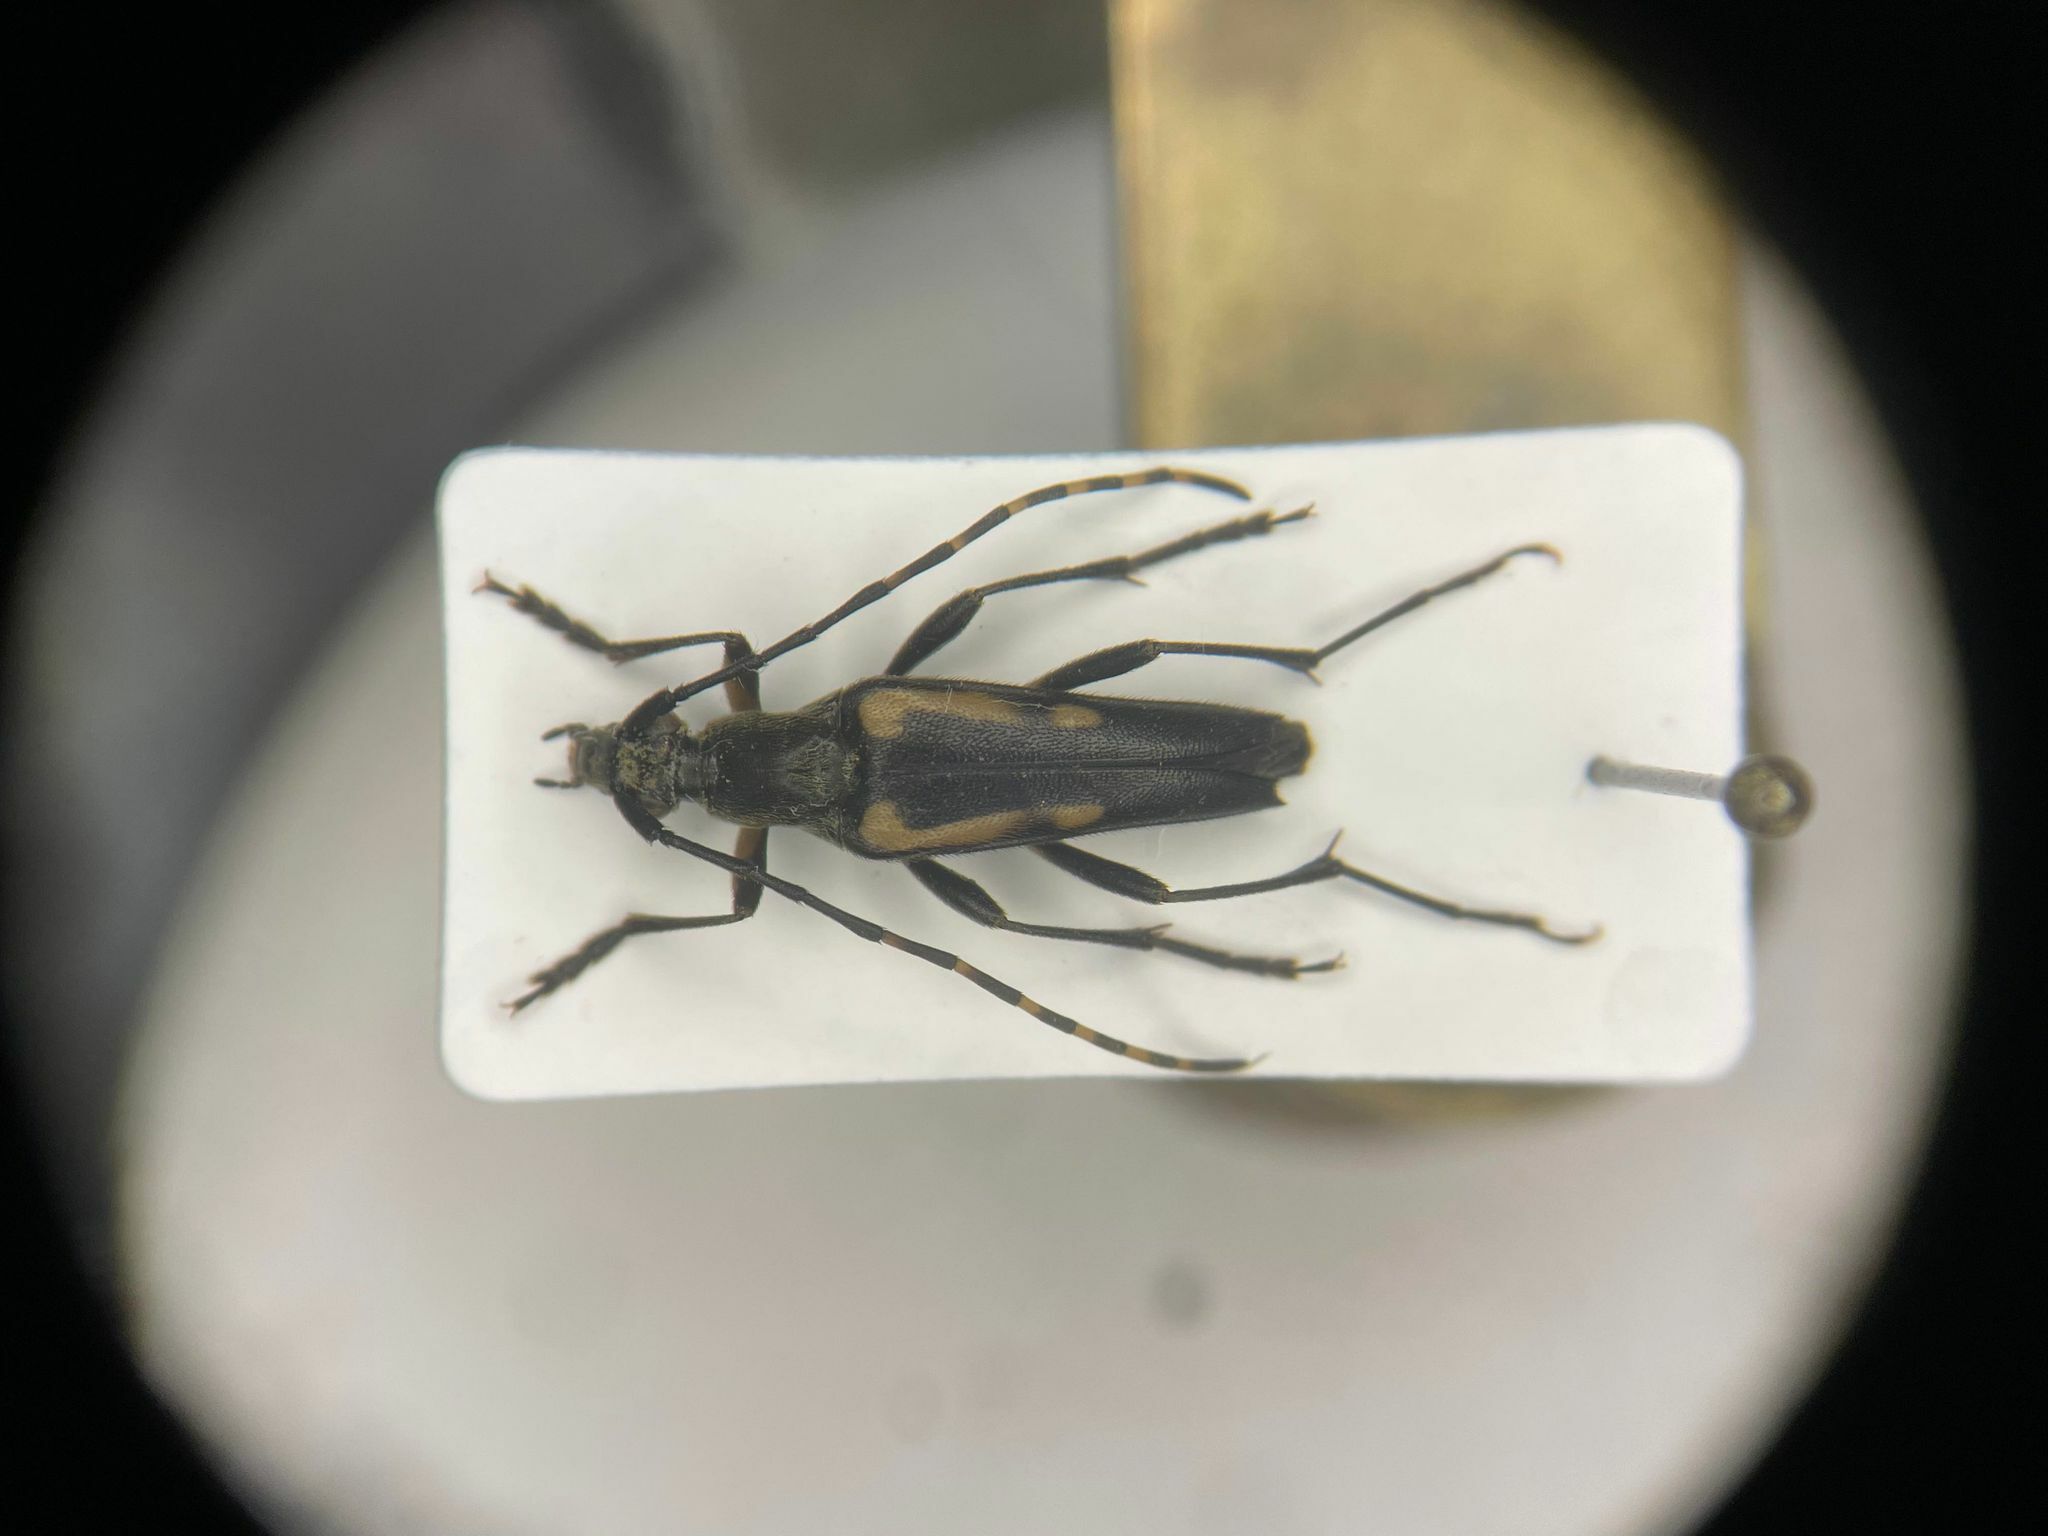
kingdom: Animalia
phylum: Arthropoda
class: Insecta
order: Coleoptera
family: Cerambycidae
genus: Etorofus
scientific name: Etorofus
